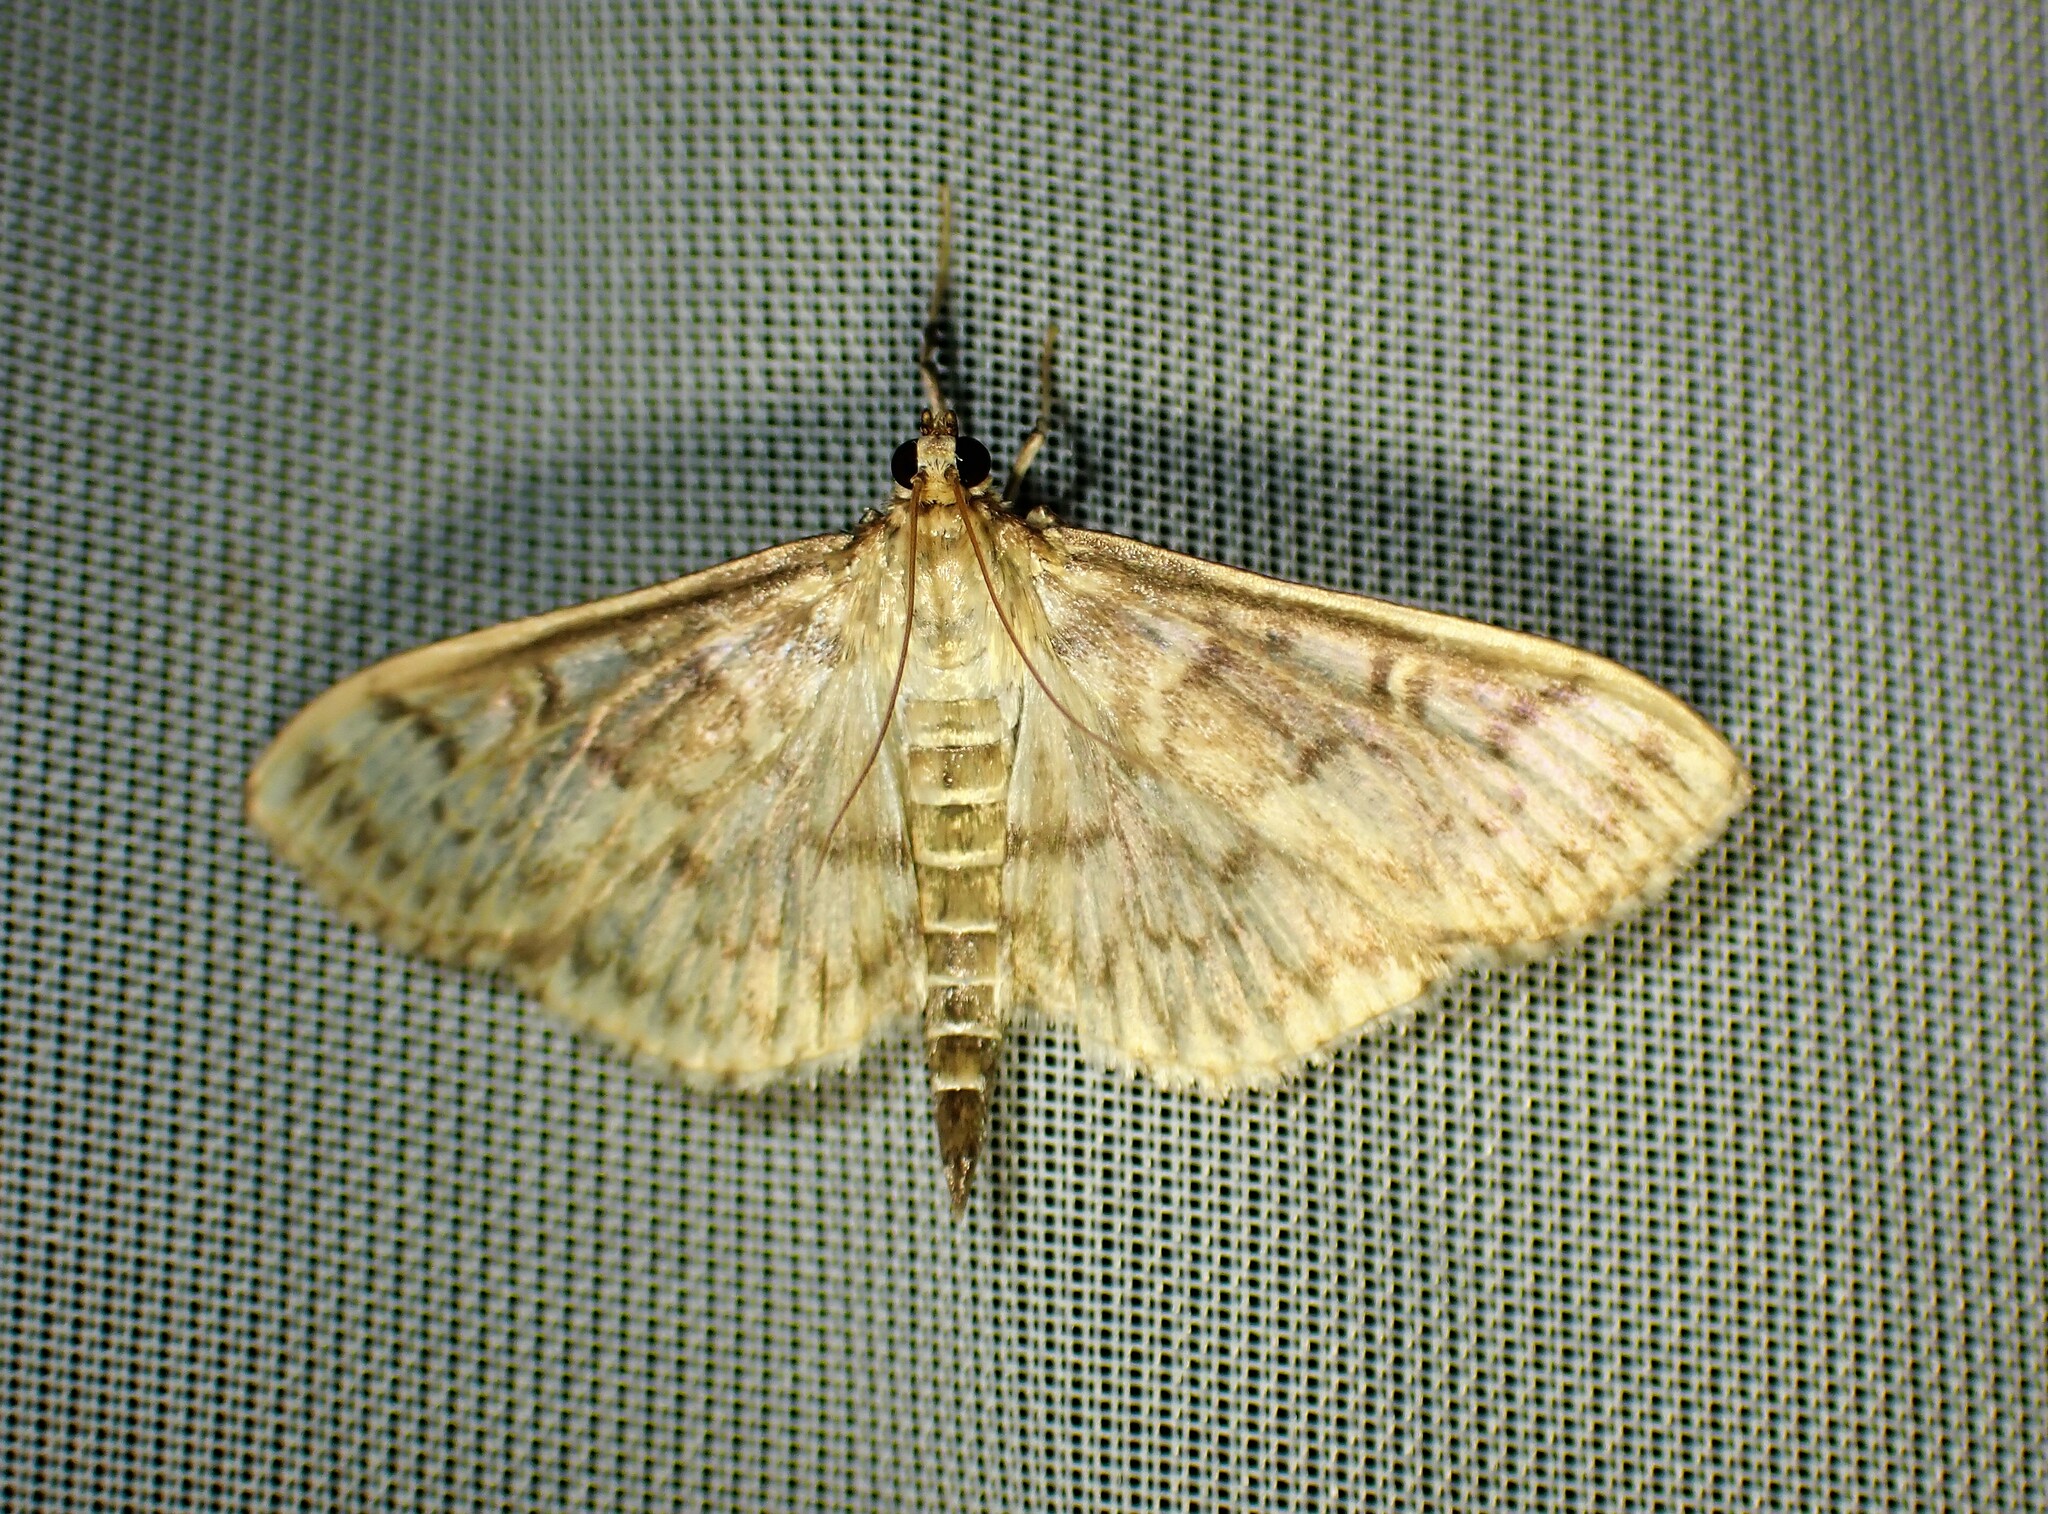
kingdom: Animalia
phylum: Arthropoda
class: Insecta
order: Lepidoptera
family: Crambidae
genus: Herpetogramma
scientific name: Herpetogramma aquilonalis
